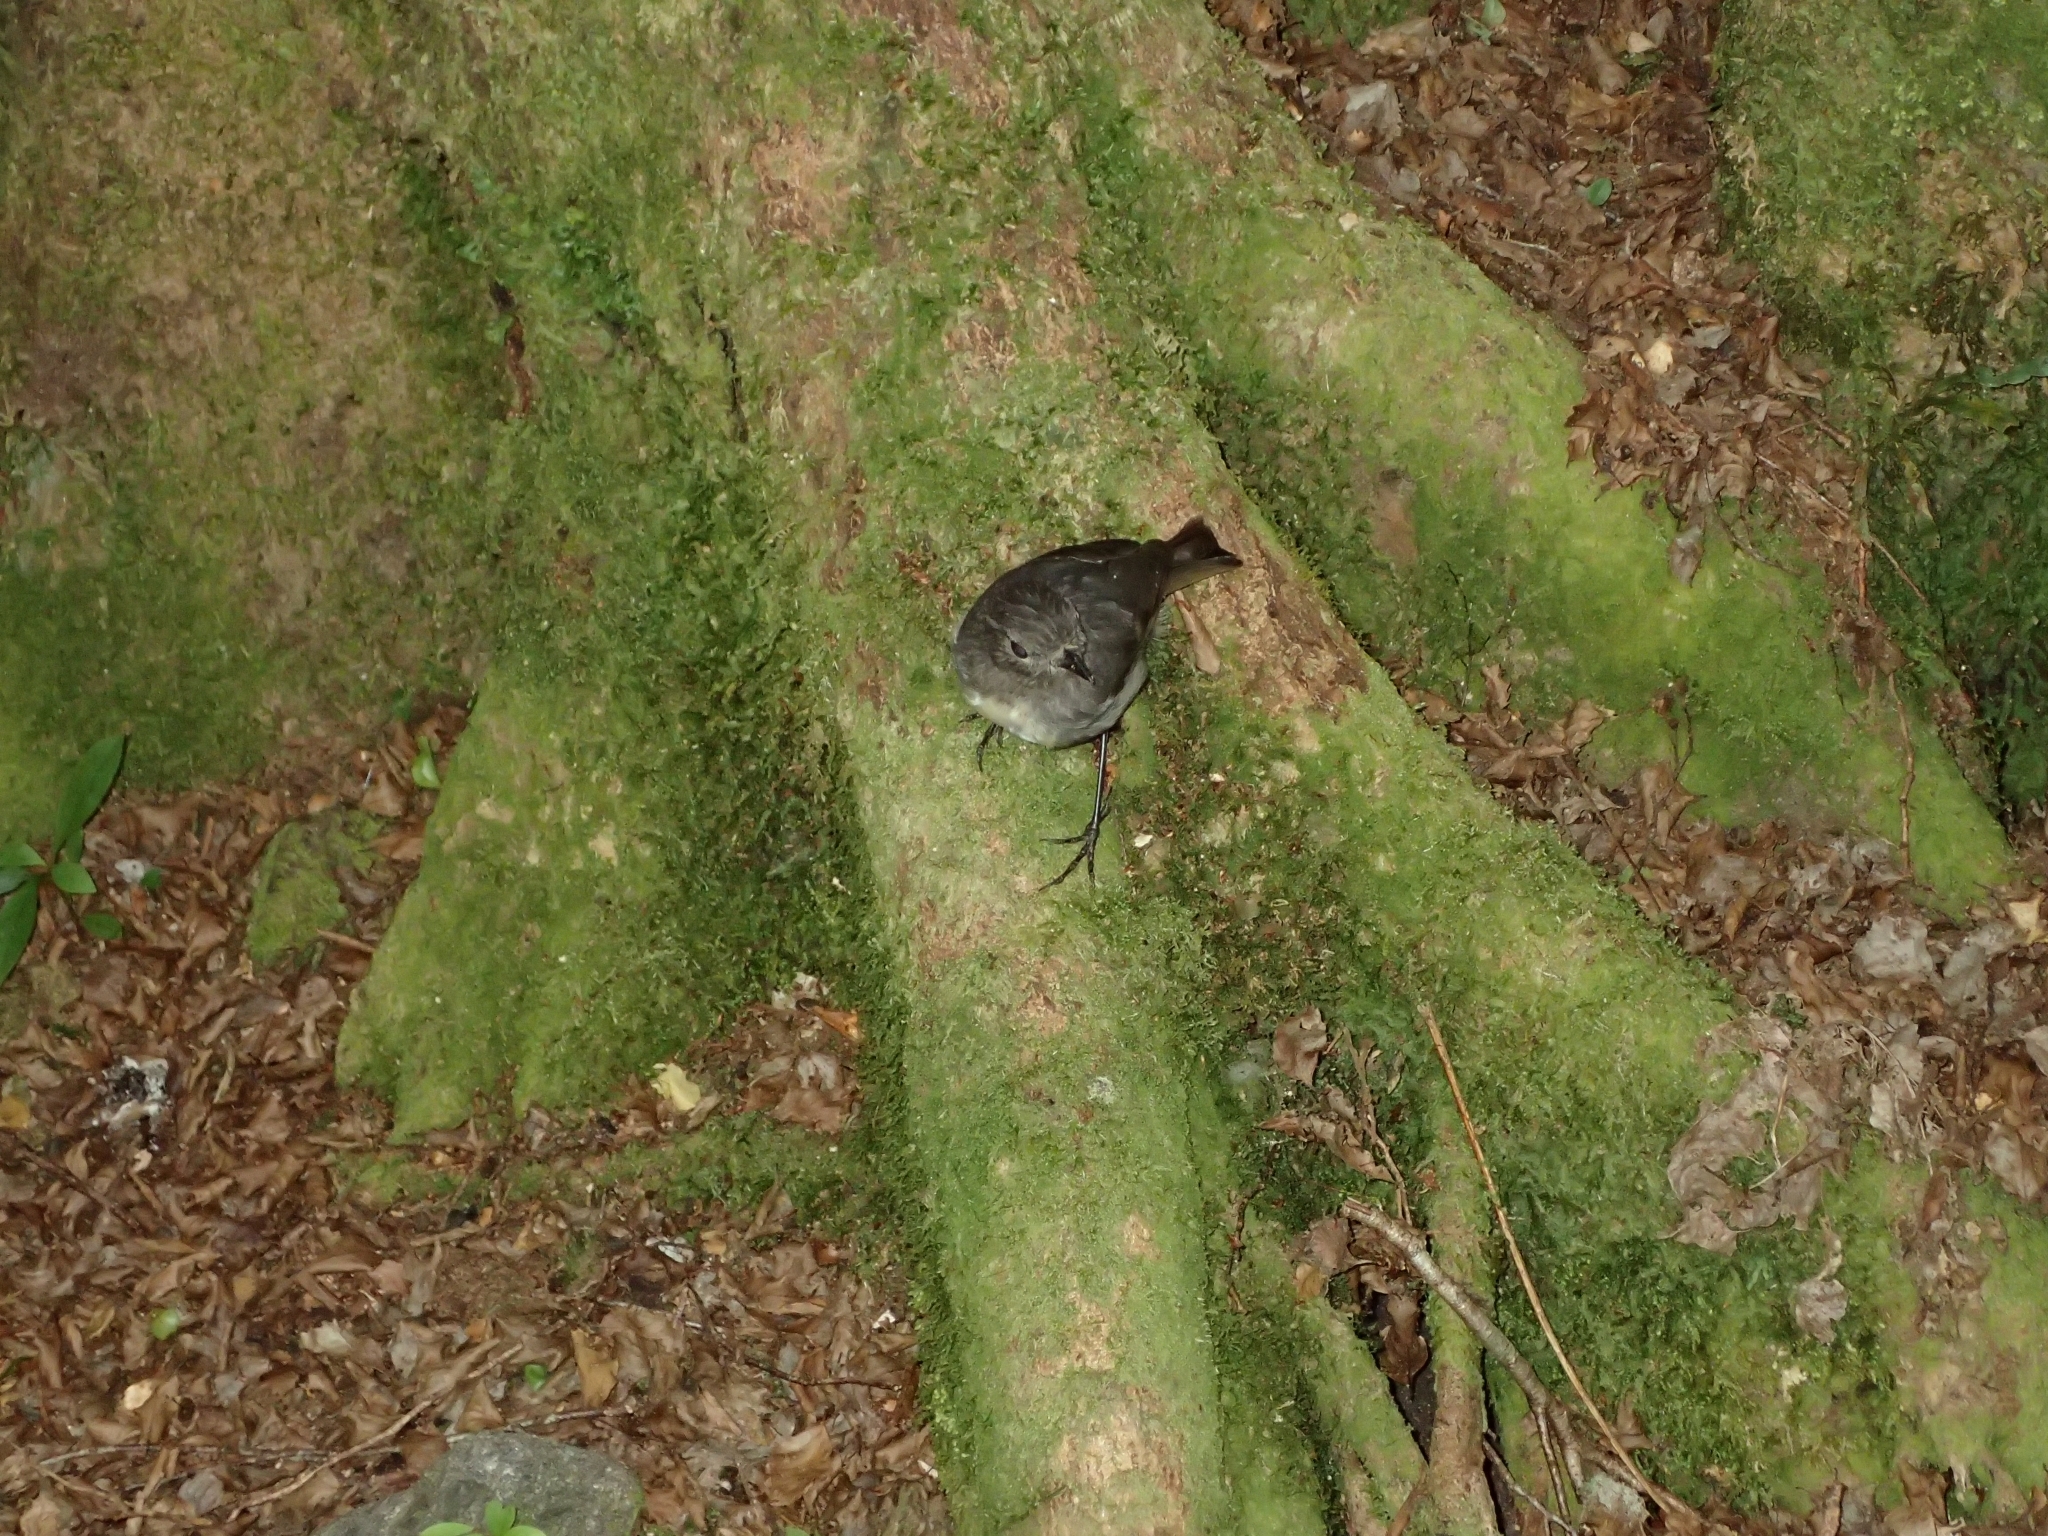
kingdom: Animalia
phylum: Chordata
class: Aves
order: Passeriformes
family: Petroicidae
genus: Petroica
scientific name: Petroica australis
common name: New zealand robin
